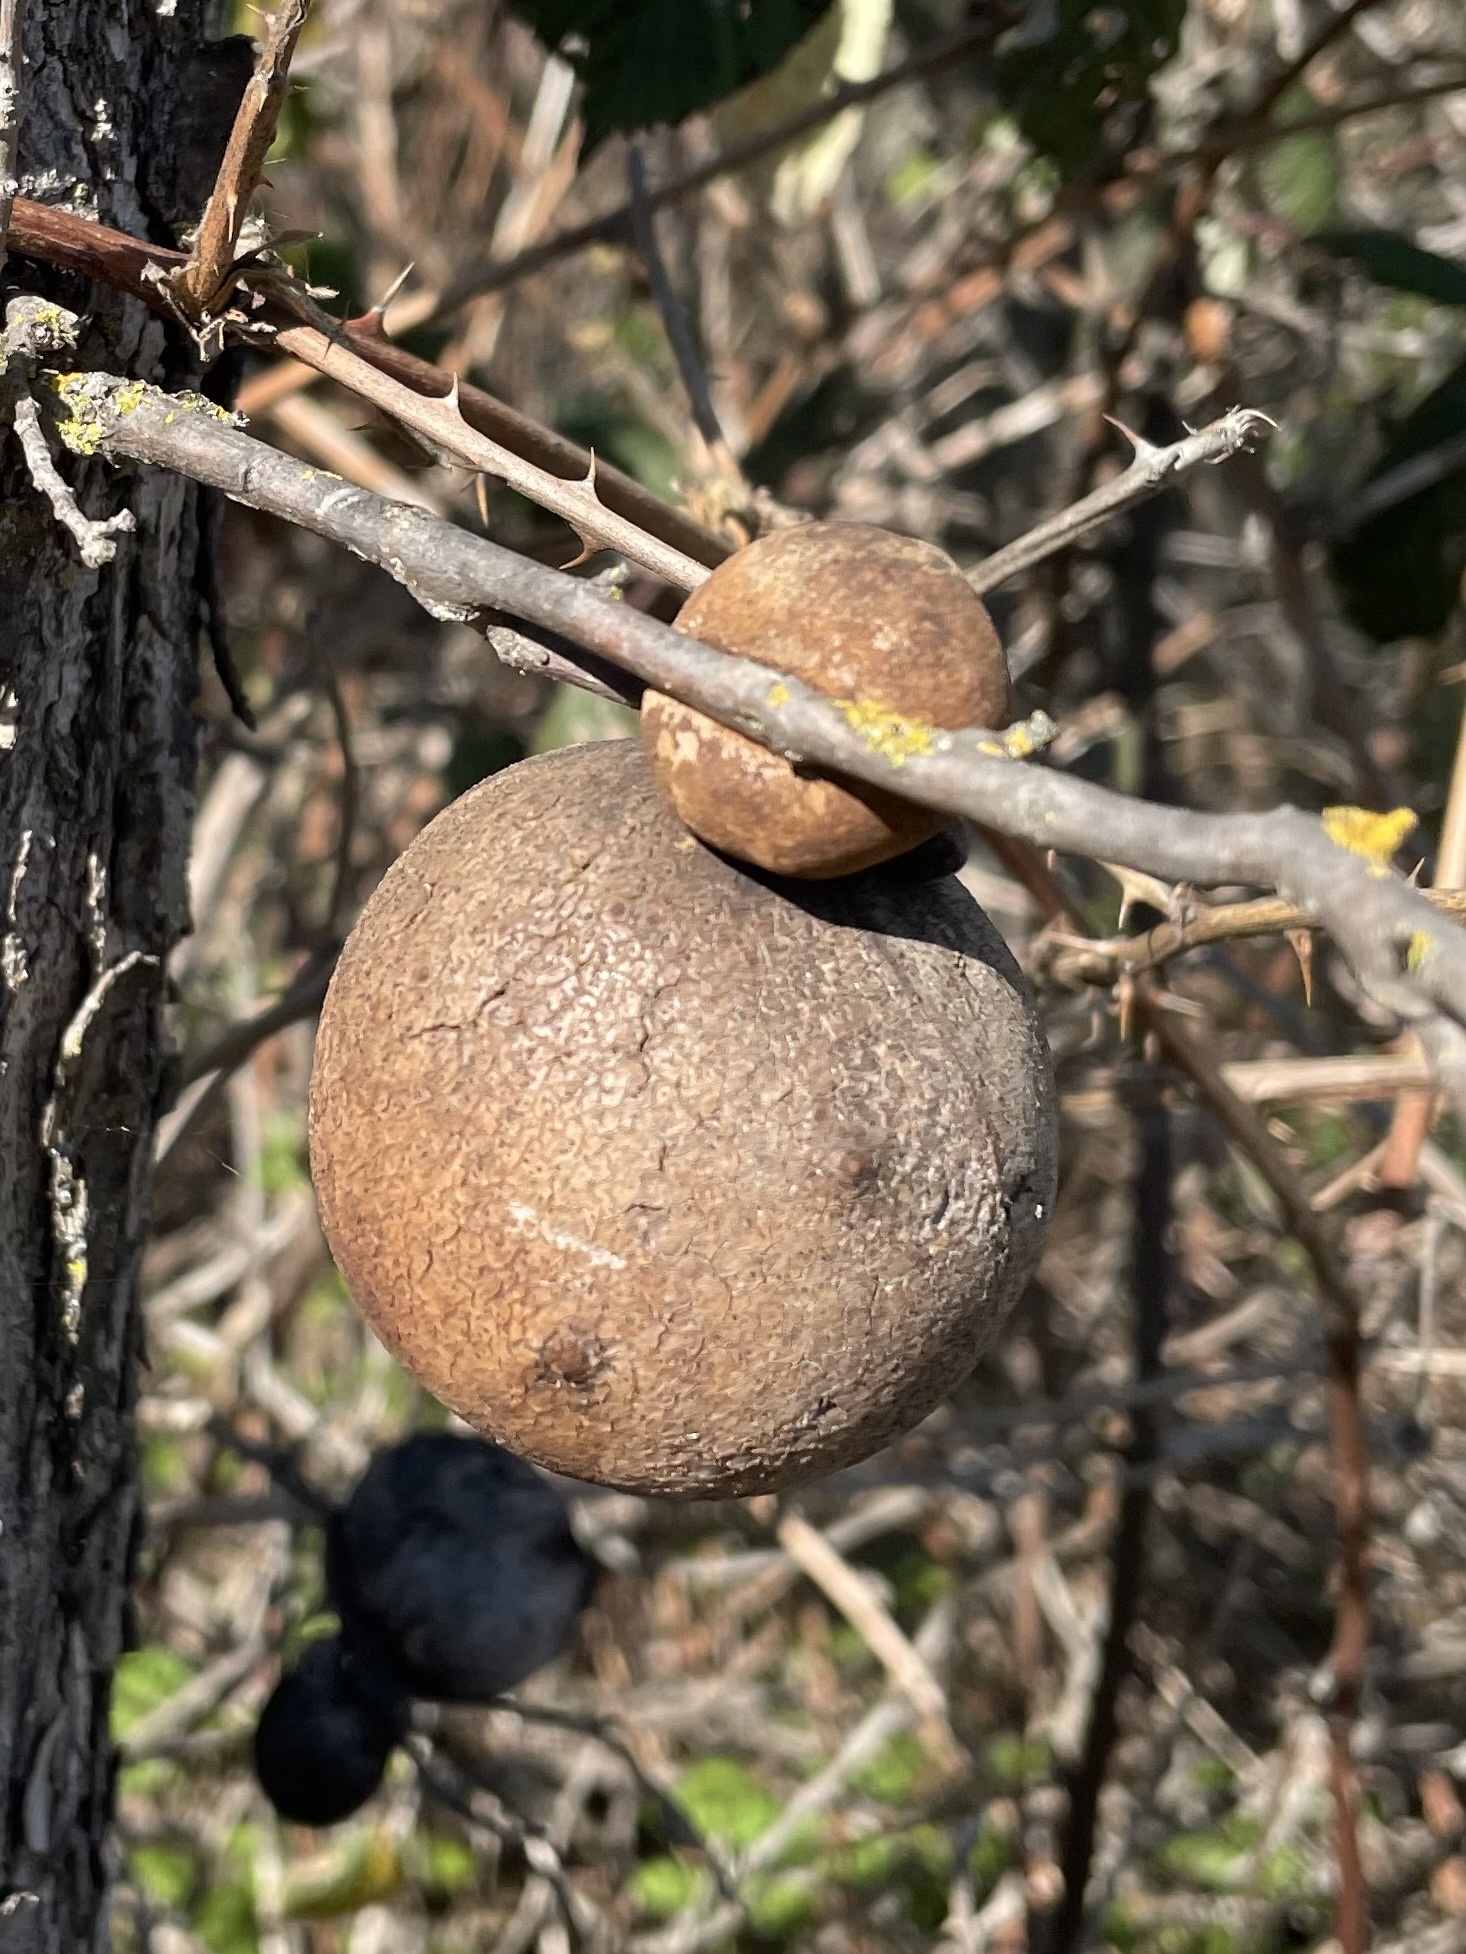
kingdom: Animalia
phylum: Arthropoda
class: Insecta
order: Hymenoptera
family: Cynipidae
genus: Andricus
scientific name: Andricus quercuscalifornicus
